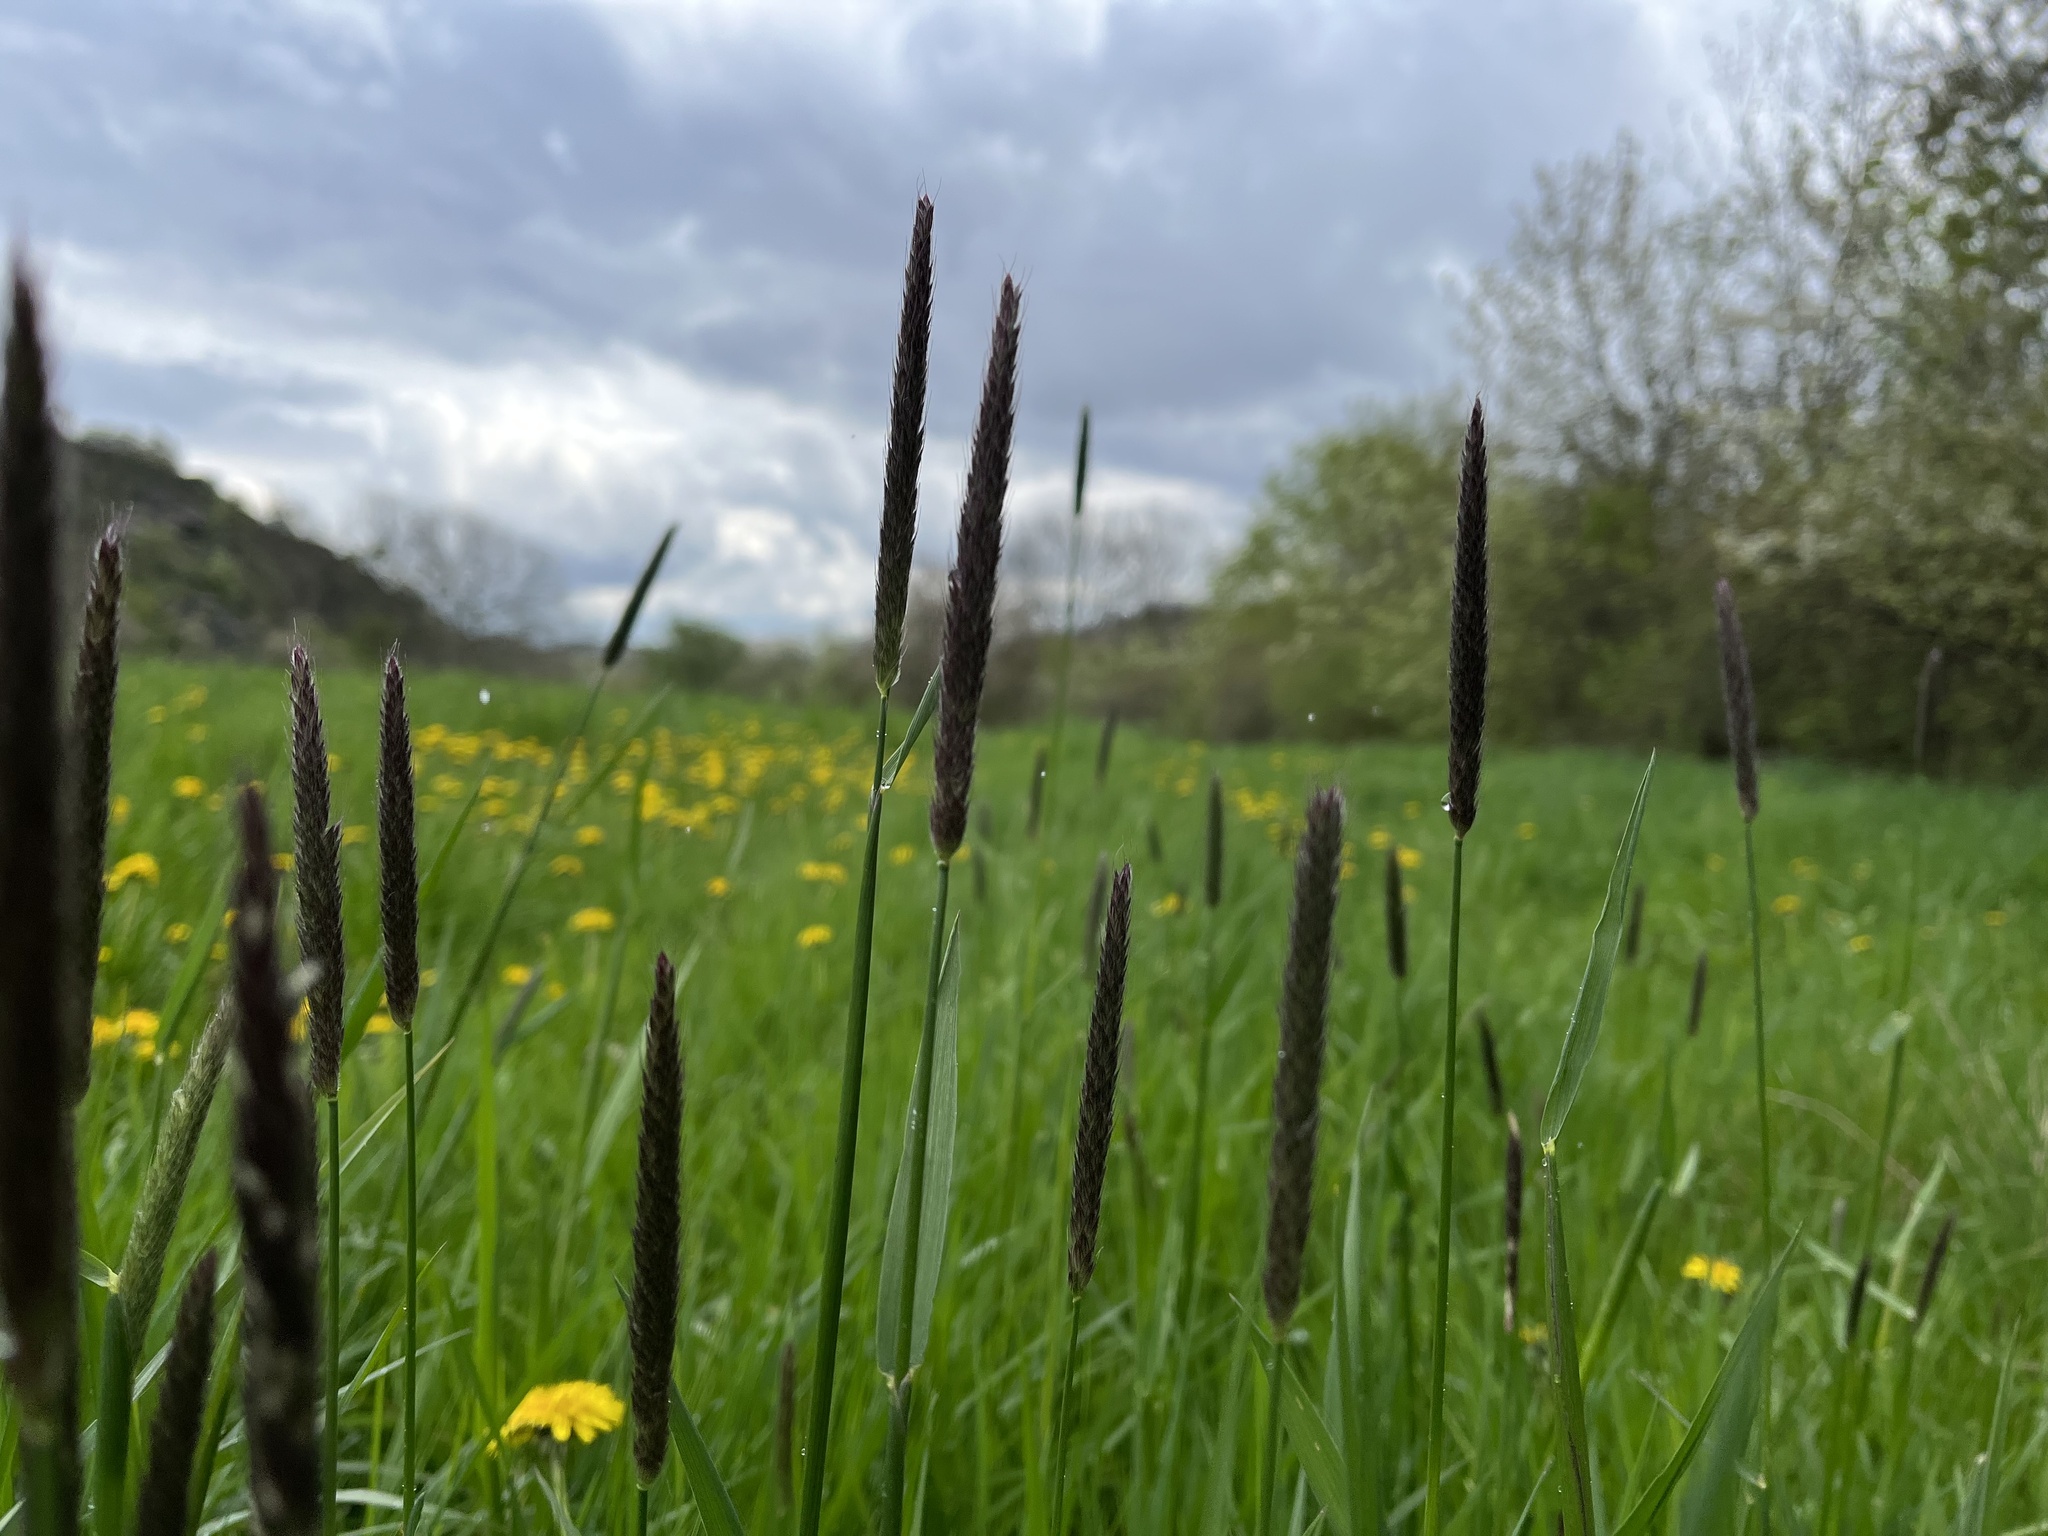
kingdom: Plantae
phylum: Tracheophyta
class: Liliopsida
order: Poales
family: Poaceae
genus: Alopecurus
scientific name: Alopecurus pratensis
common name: Meadow foxtail
